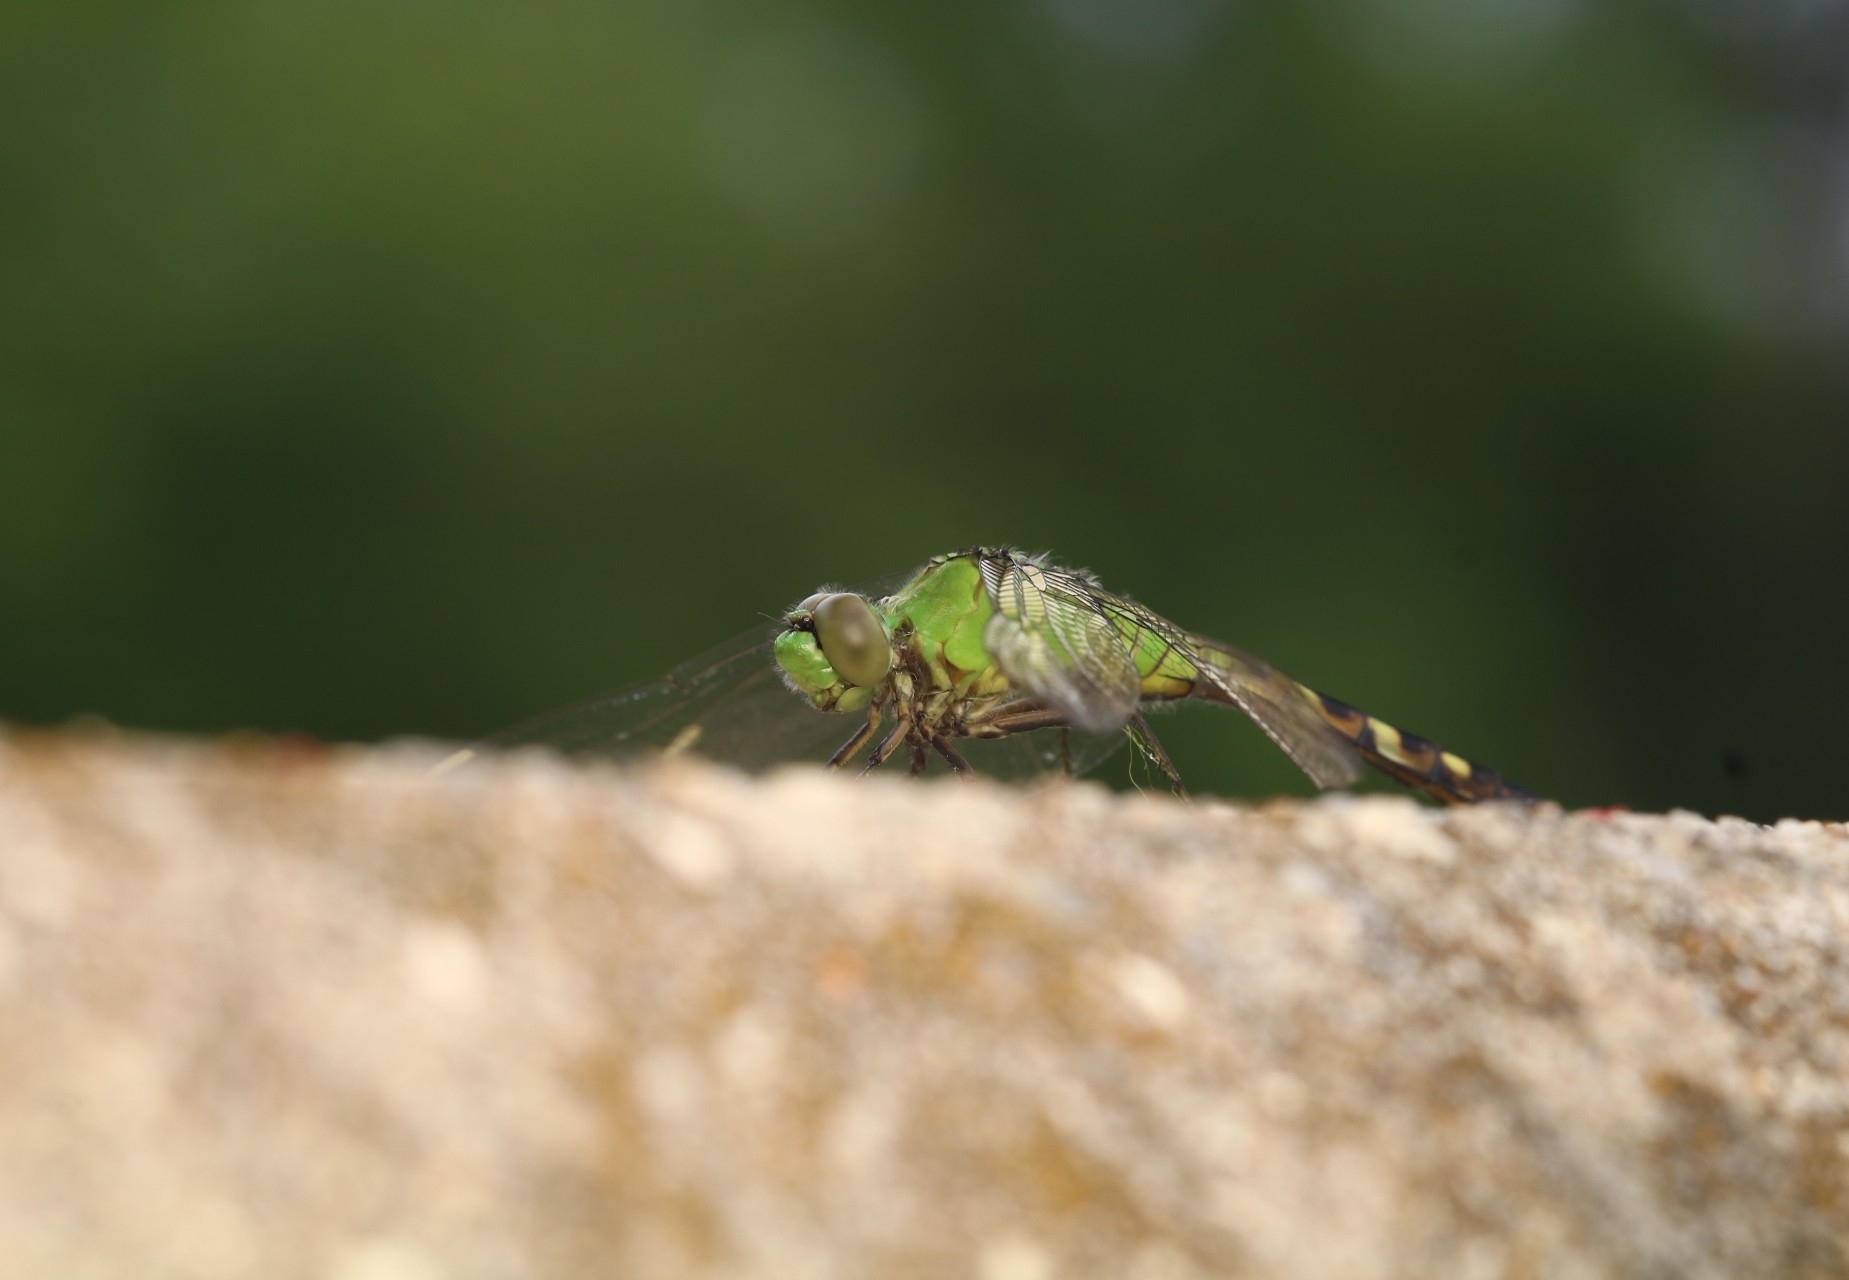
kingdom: Animalia
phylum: Arthropoda
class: Insecta
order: Odonata
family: Libellulidae
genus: Erythemis
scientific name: Erythemis simplicicollis
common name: Eastern pondhawk
